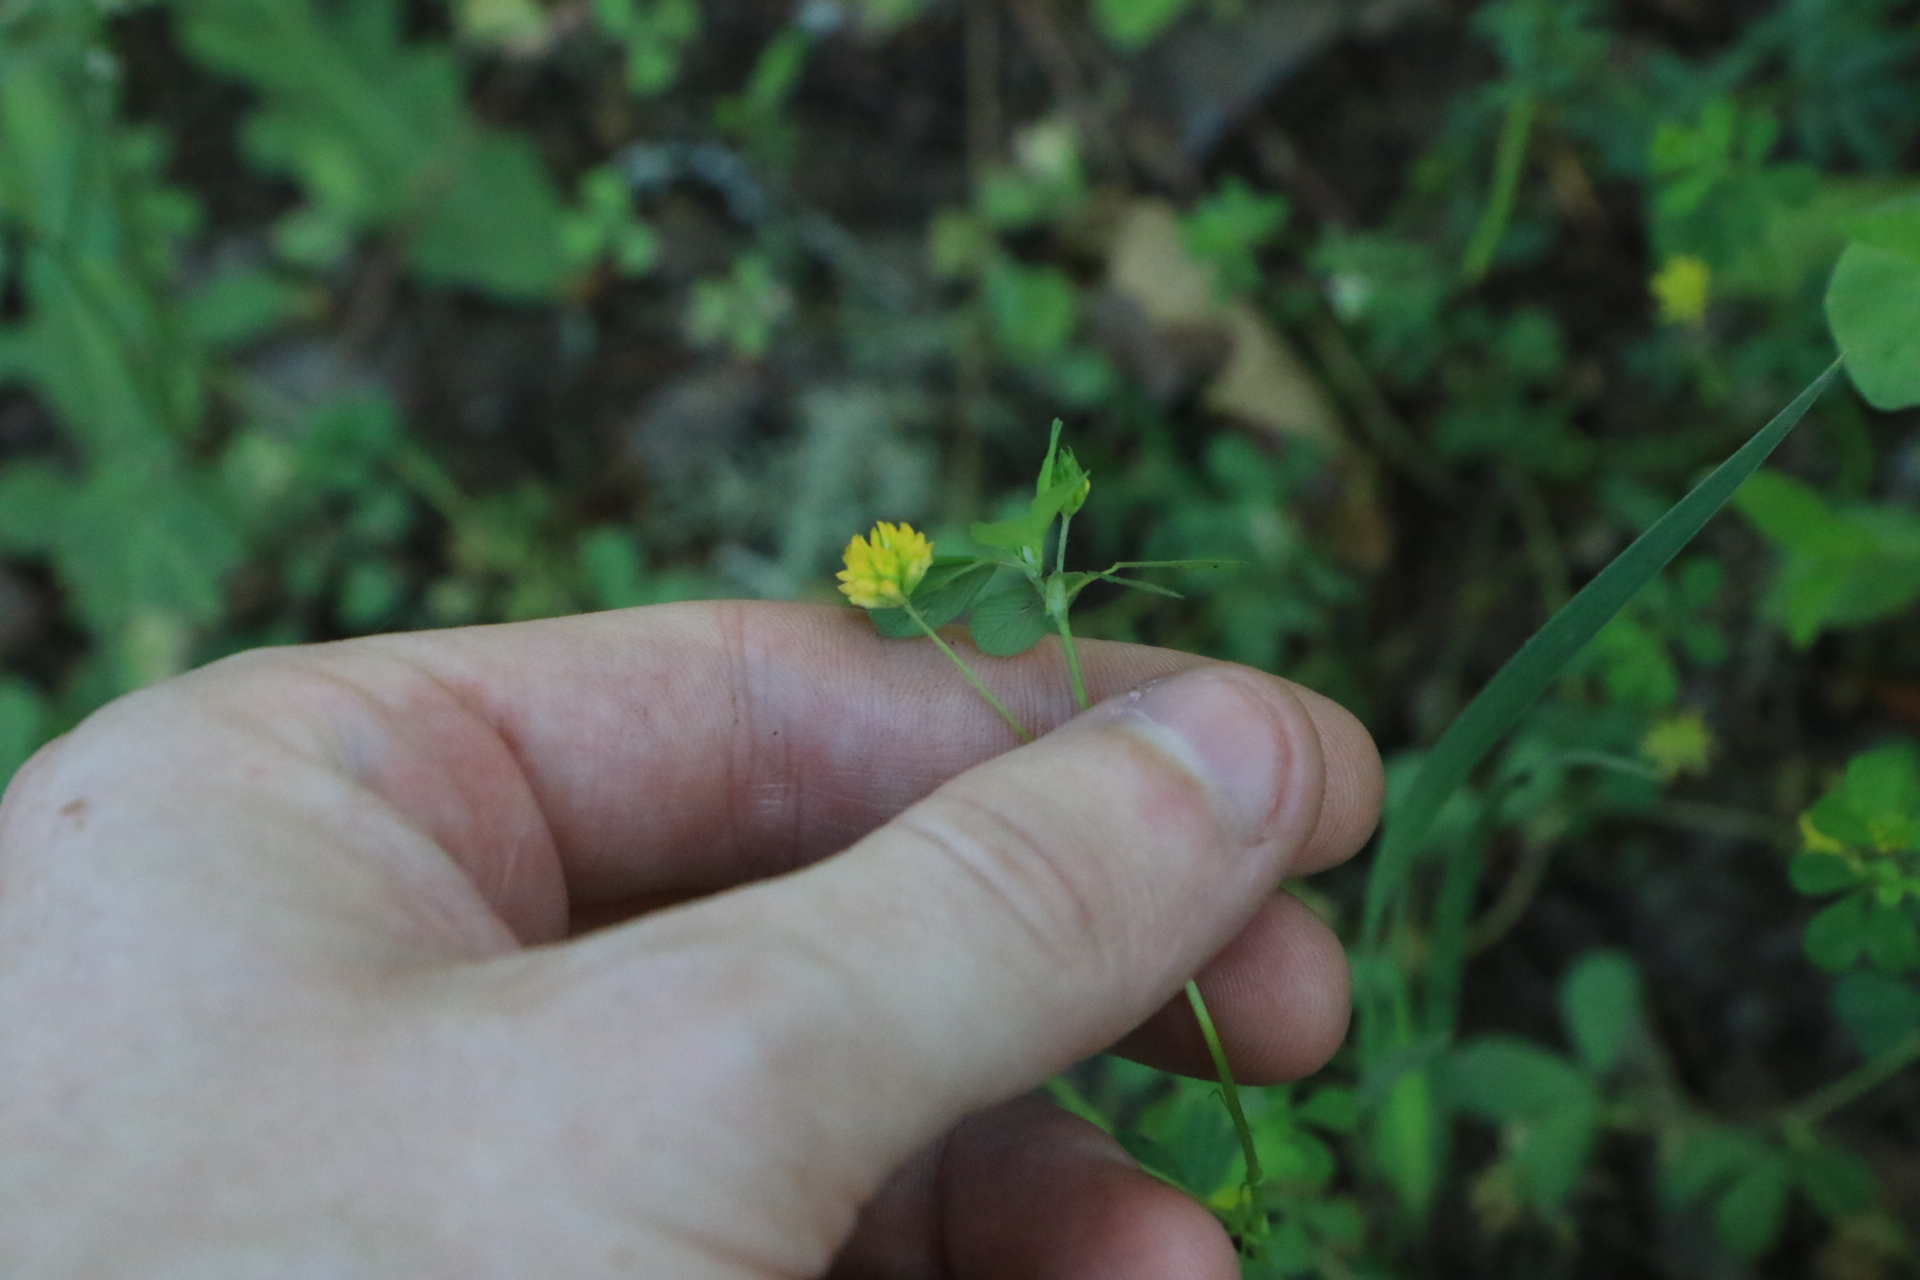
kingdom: Plantae
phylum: Tracheophyta
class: Magnoliopsida
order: Fabales
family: Fabaceae
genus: Trifolium
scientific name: Trifolium dubium
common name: Suckling clover
